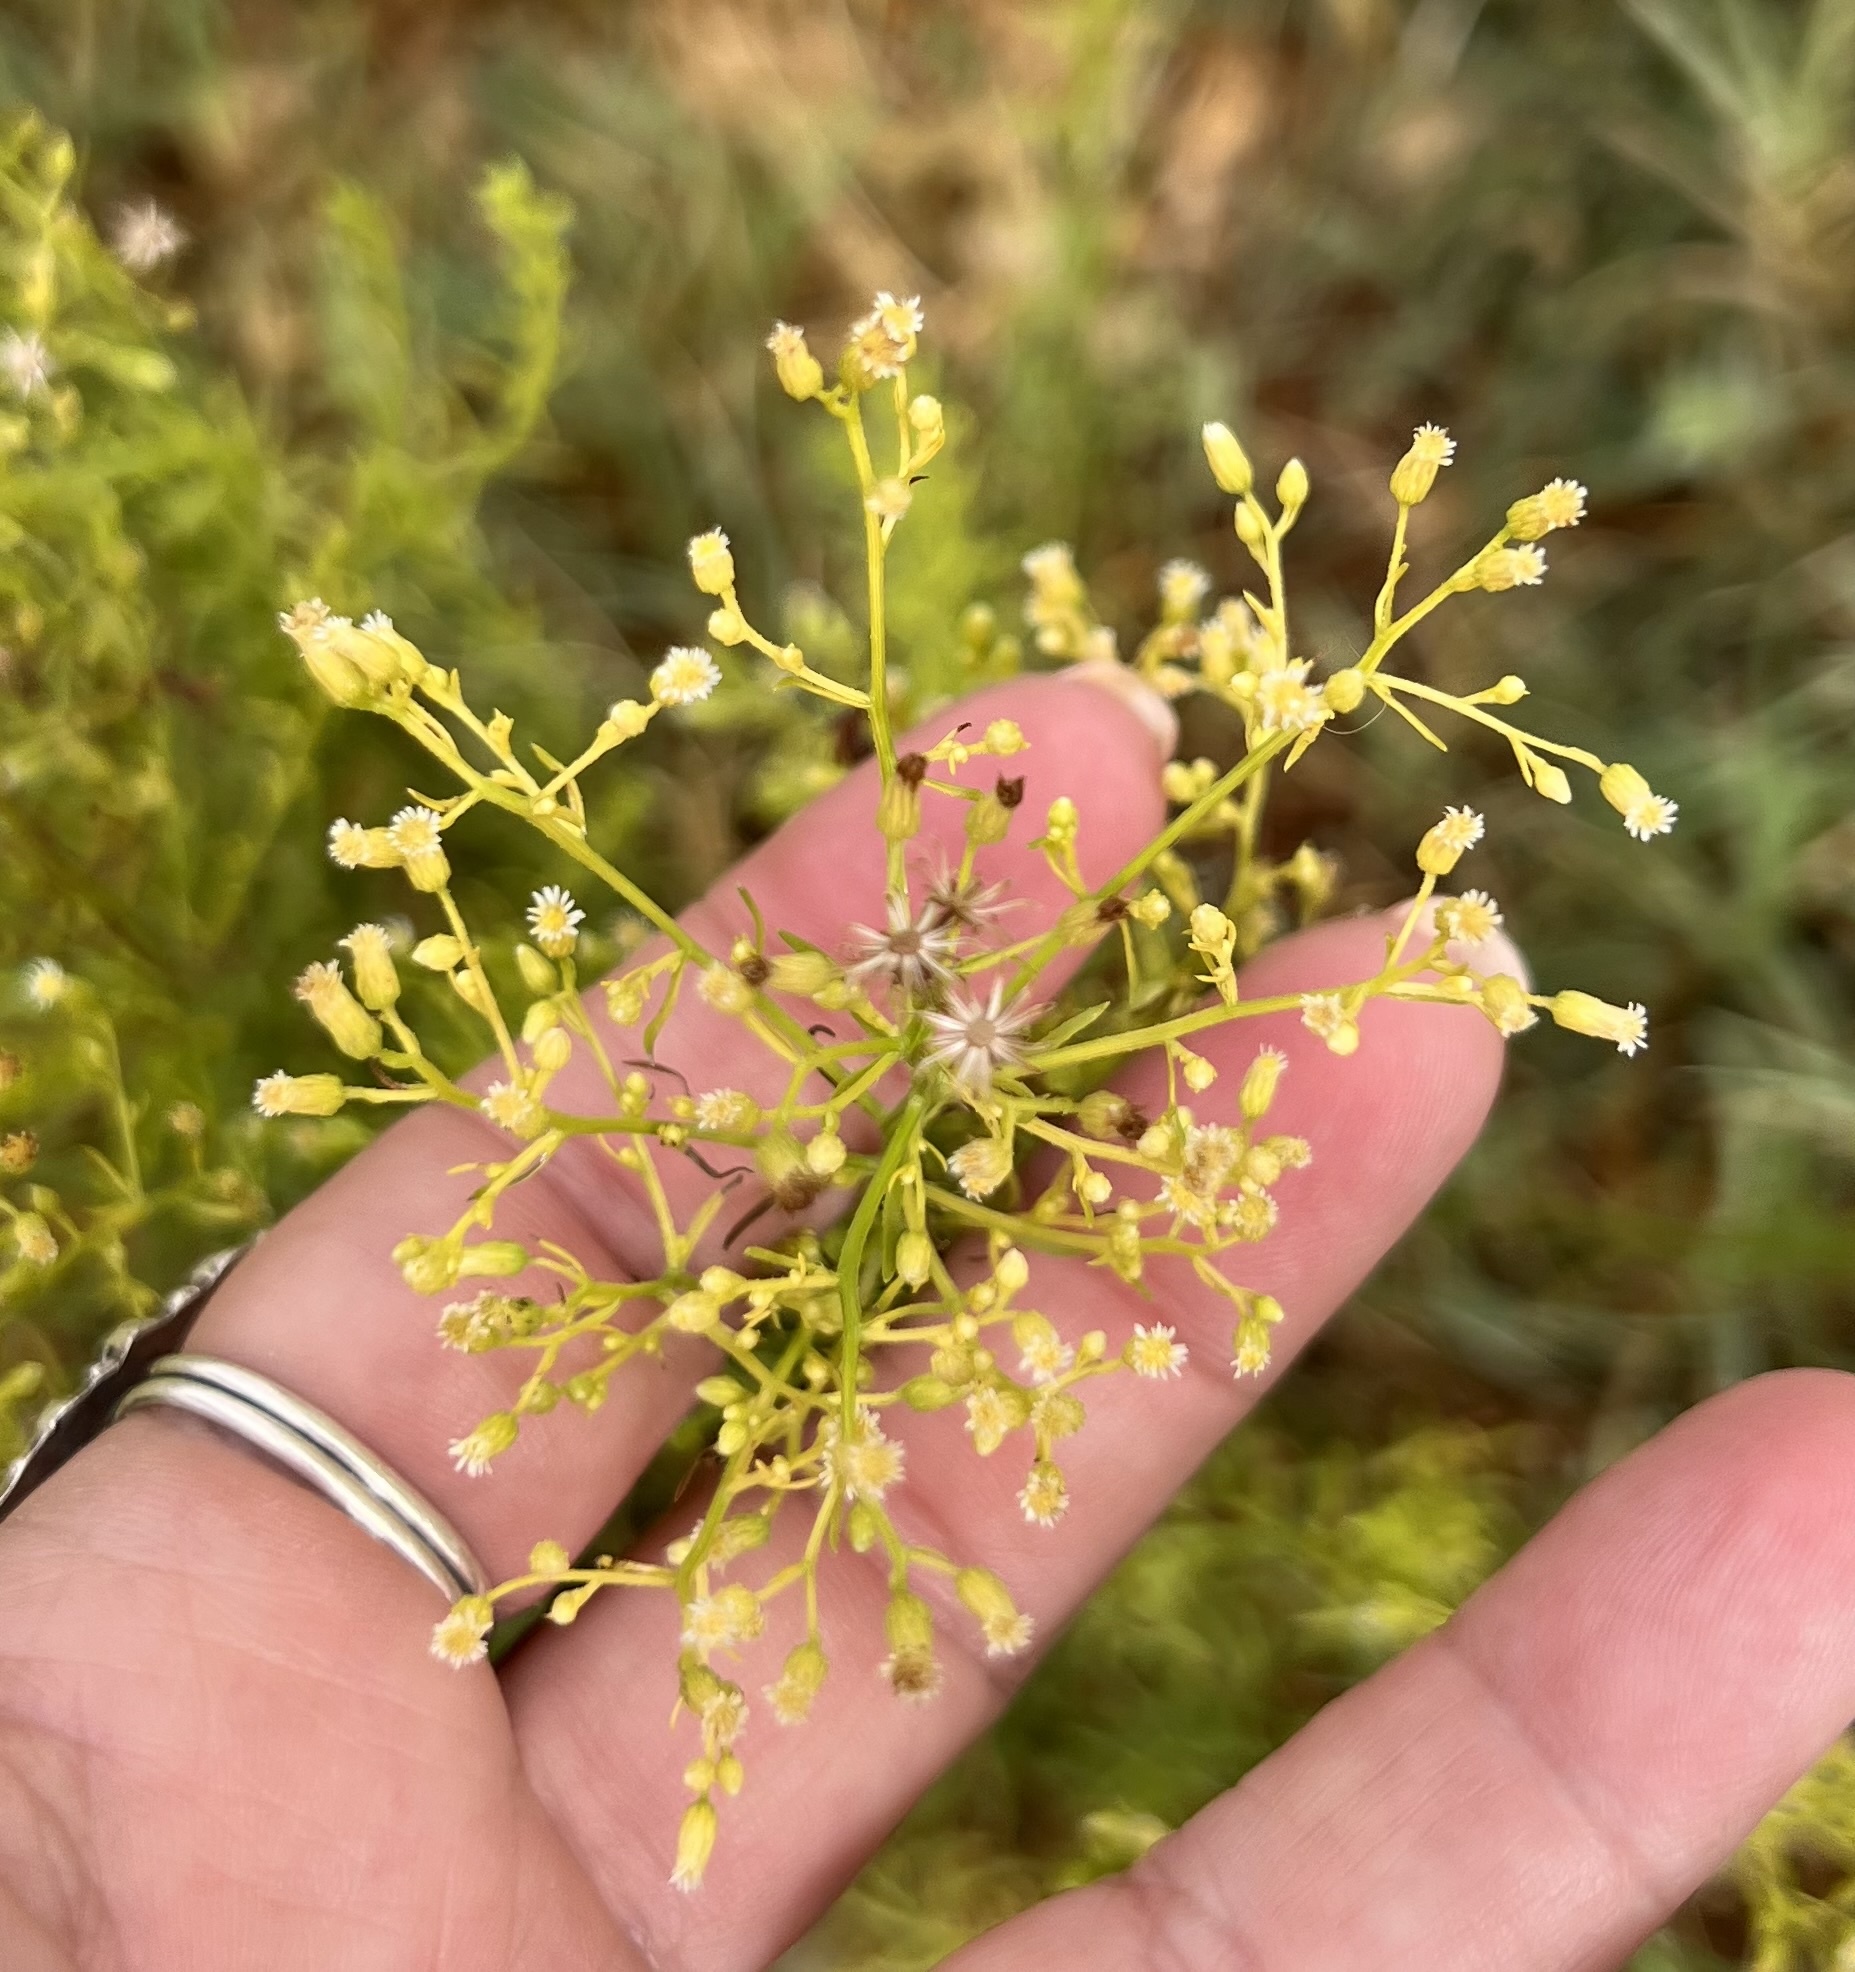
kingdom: Plantae
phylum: Tracheophyta
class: Magnoliopsida
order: Asterales
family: Asteraceae
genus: Erigeron
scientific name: Erigeron canadensis
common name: Canadian fleabane
